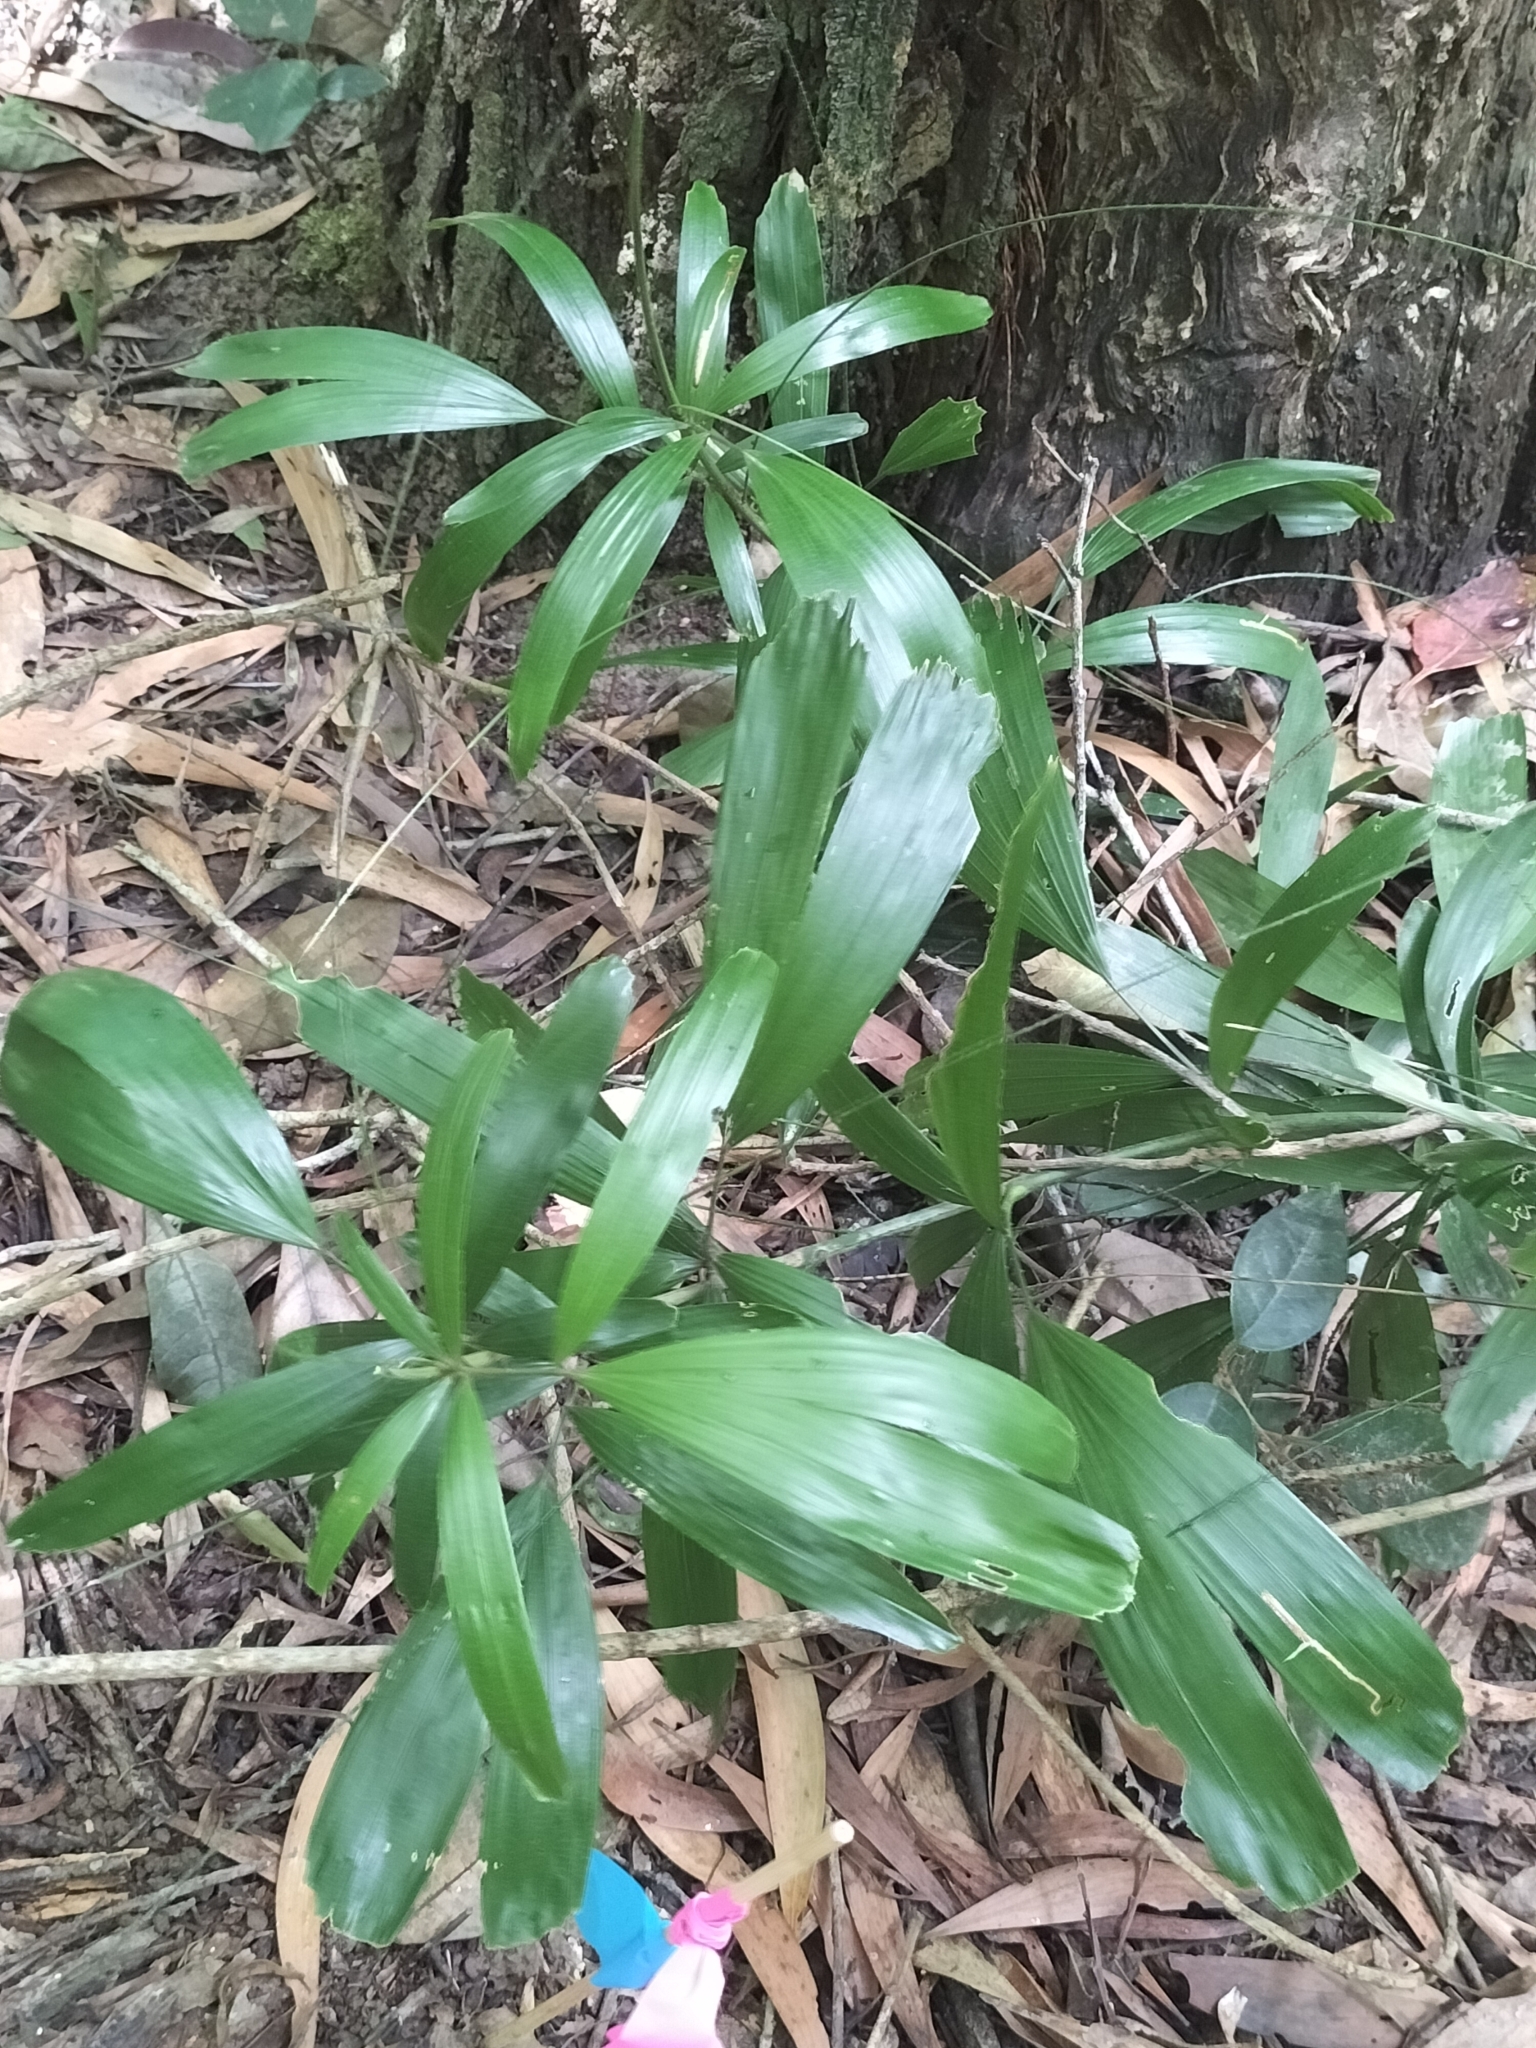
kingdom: Plantae
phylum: Tracheophyta
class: Liliopsida
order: Arecales
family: Arecaceae
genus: Calamus
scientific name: Calamus caryotoides
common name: Fishtail lawyer cane
